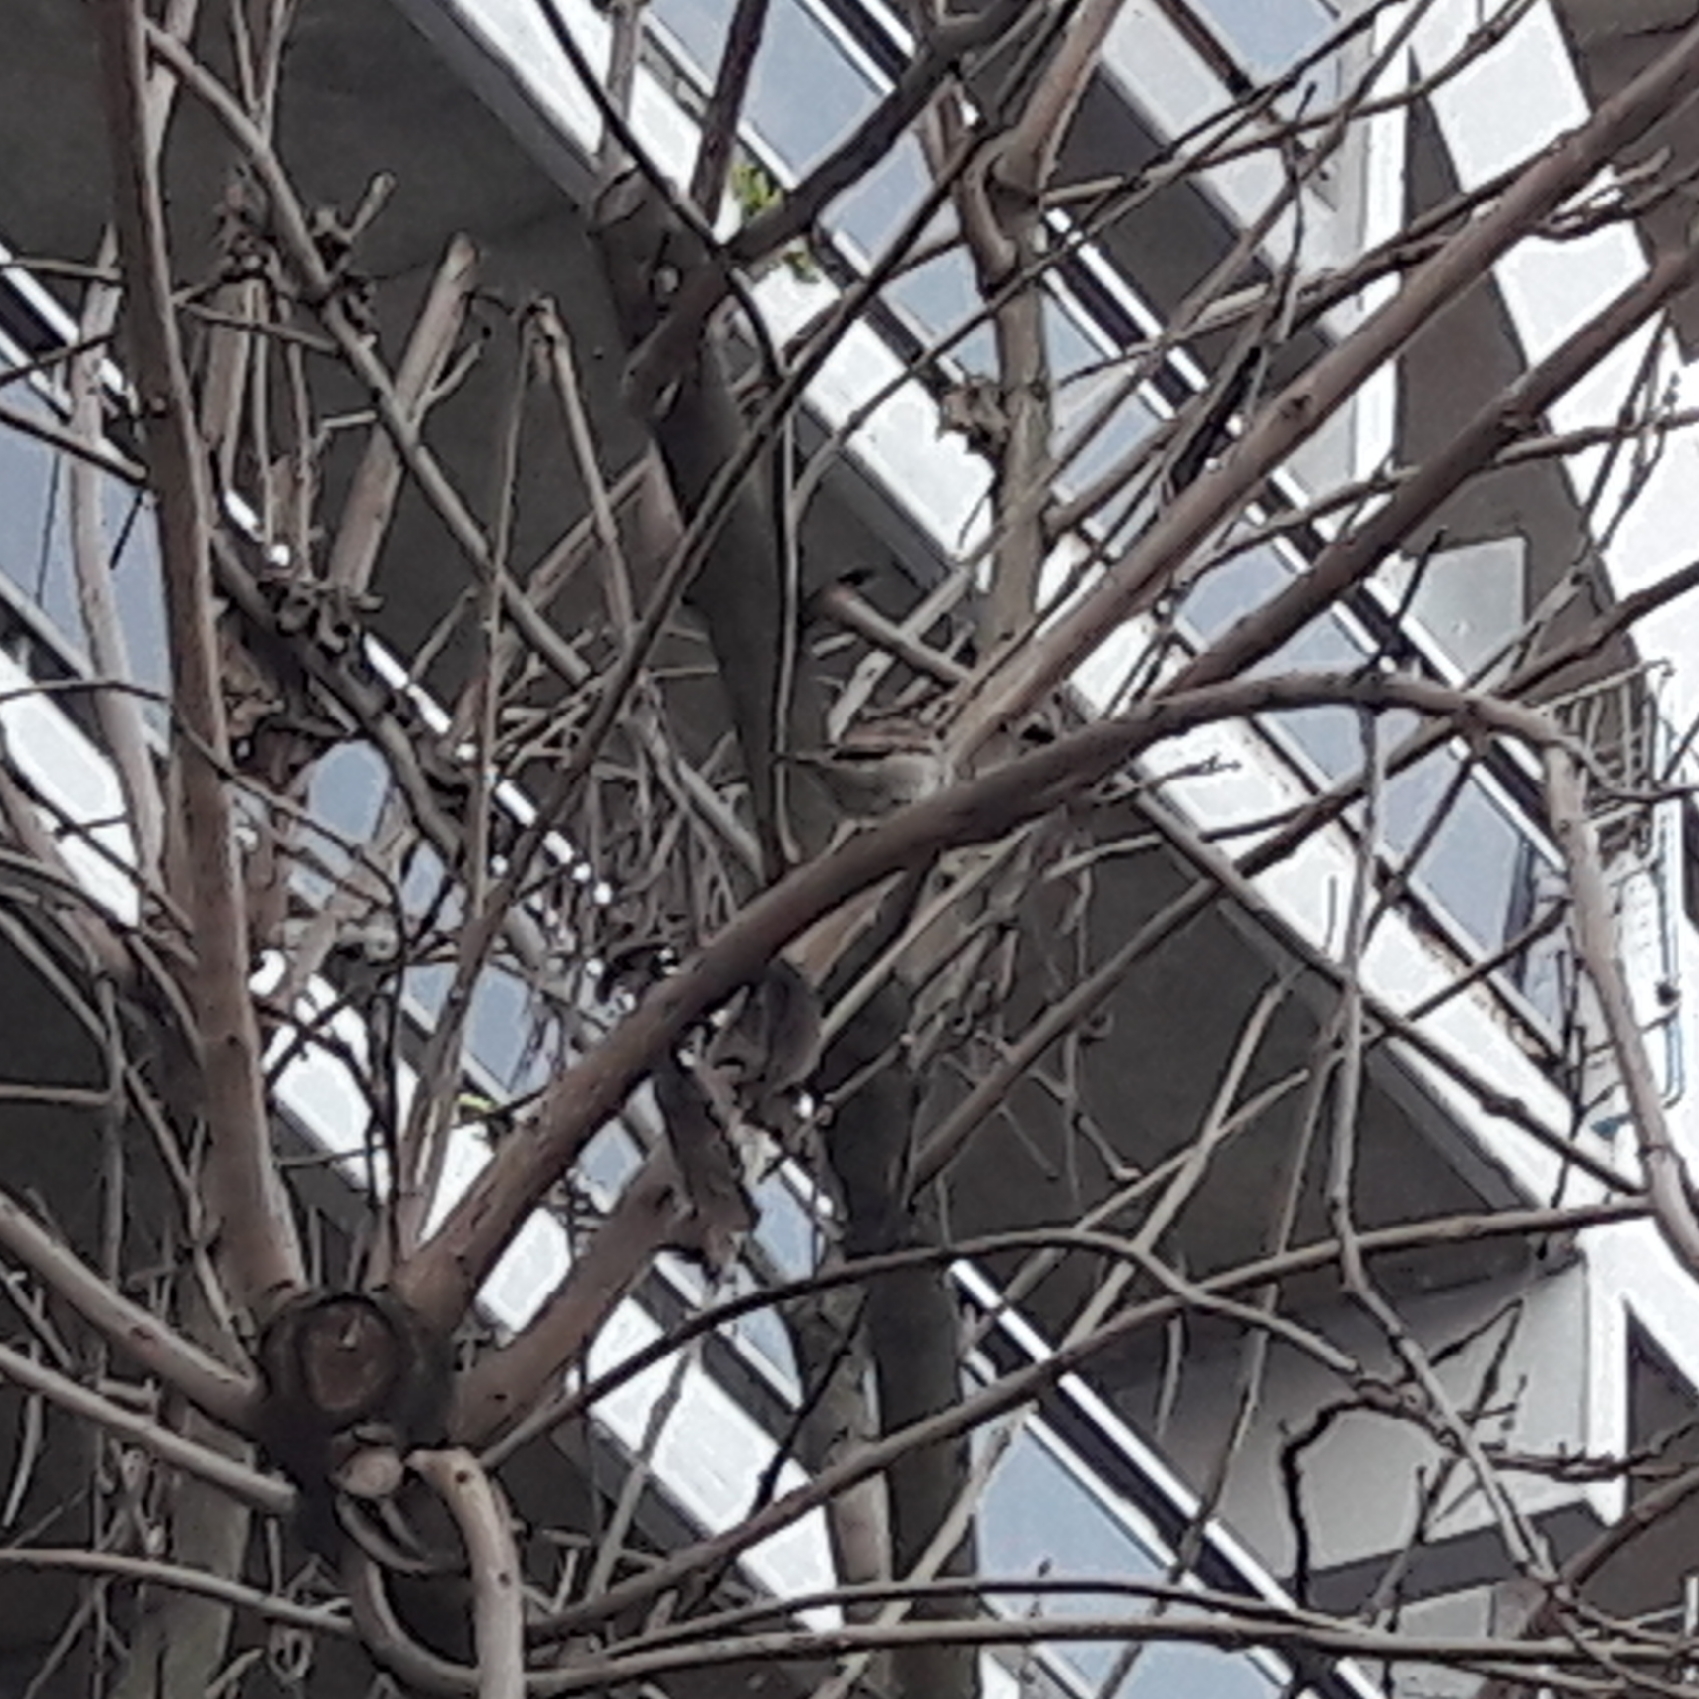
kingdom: Animalia
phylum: Chordata
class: Aves
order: Passeriformes
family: Passeridae
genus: Passer
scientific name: Passer domesticus
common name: House sparrow
